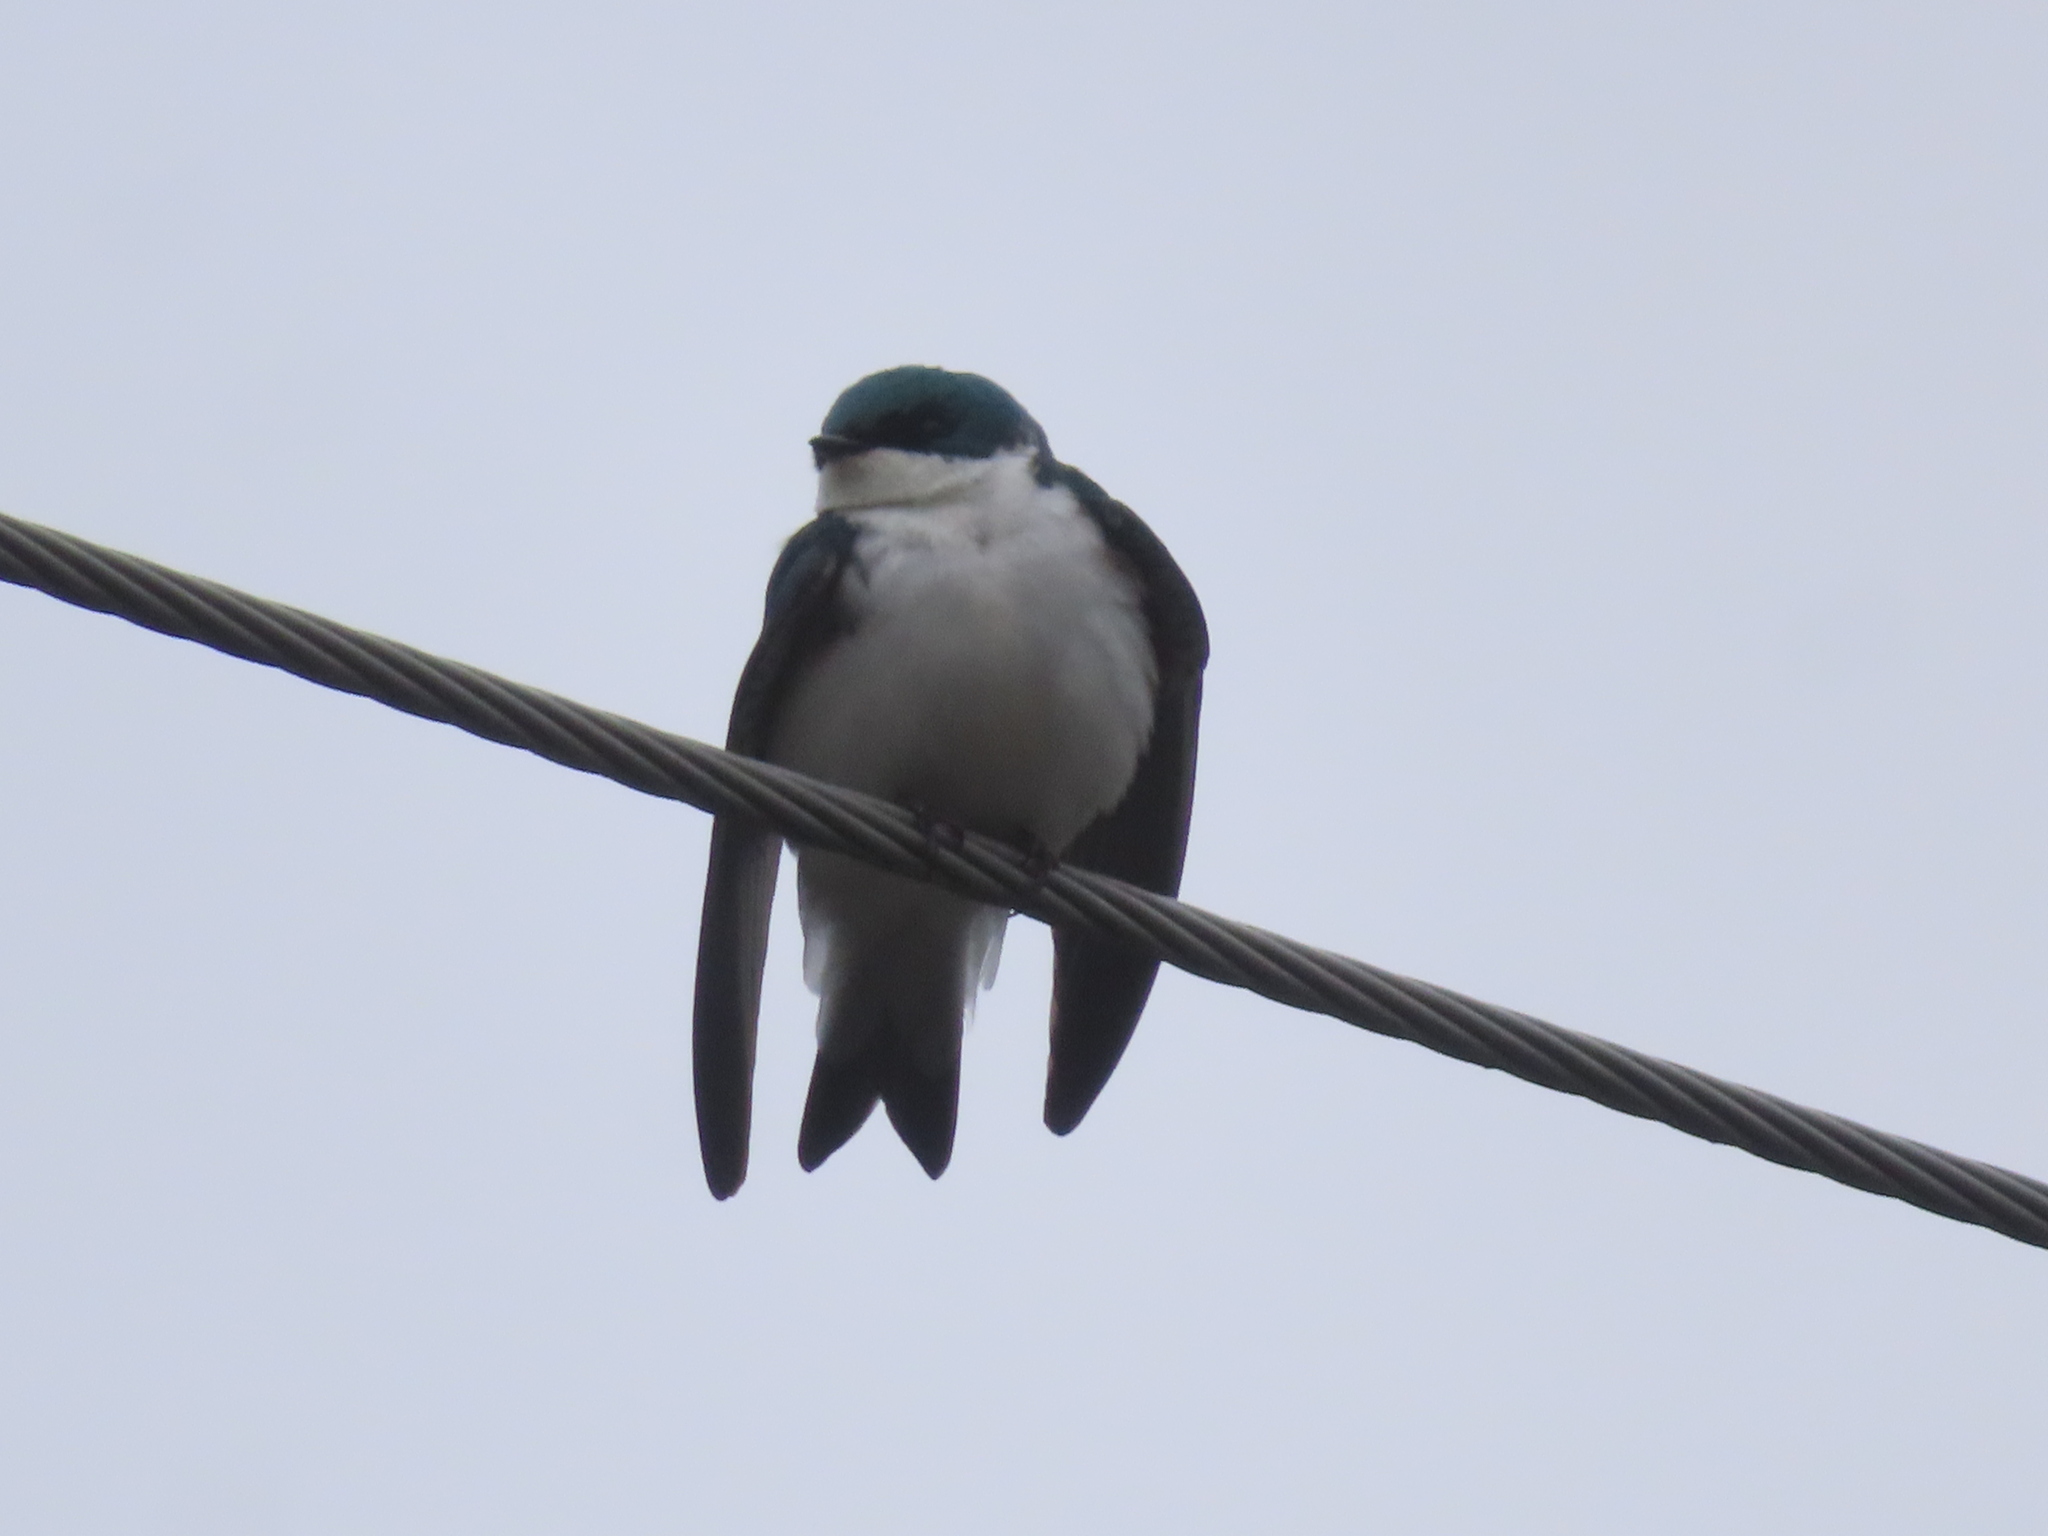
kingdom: Animalia
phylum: Chordata
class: Aves
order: Passeriformes
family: Hirundinidae
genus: Tachycineta
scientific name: Tachycineta bicolor
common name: Tree swallow
